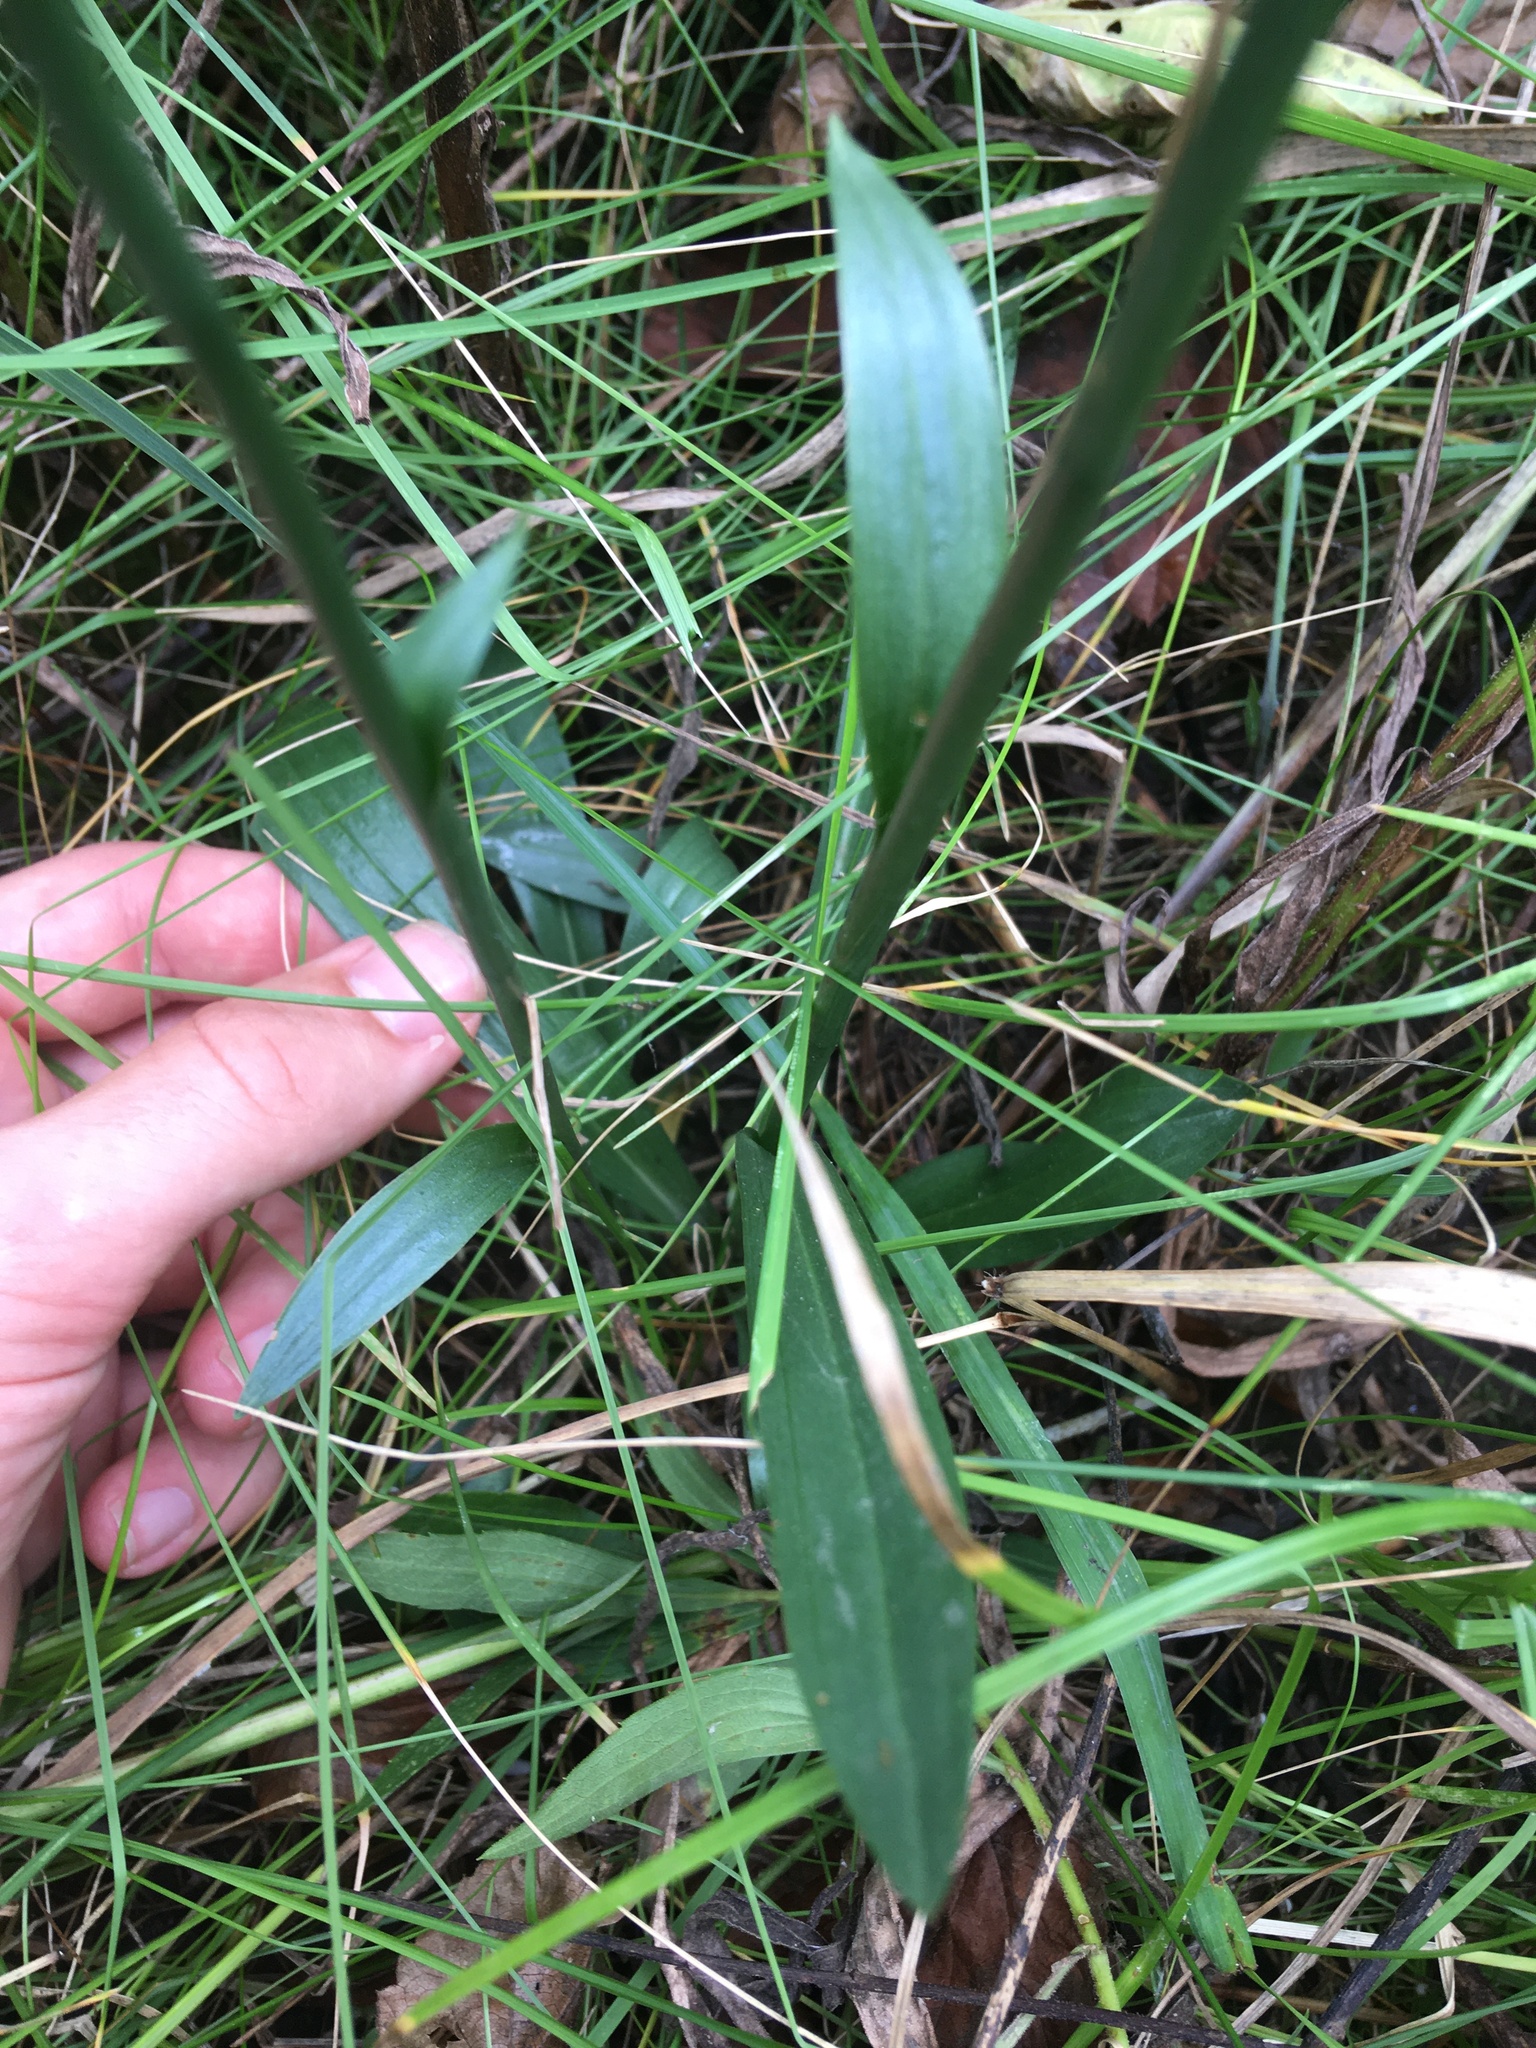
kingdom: Plantae
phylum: Tracheophyta
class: Liliopsida
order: Asparagales
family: Orchidaceae
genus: Spiranthes
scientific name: Spiranthes ovalis
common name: October ladies'-tresses
